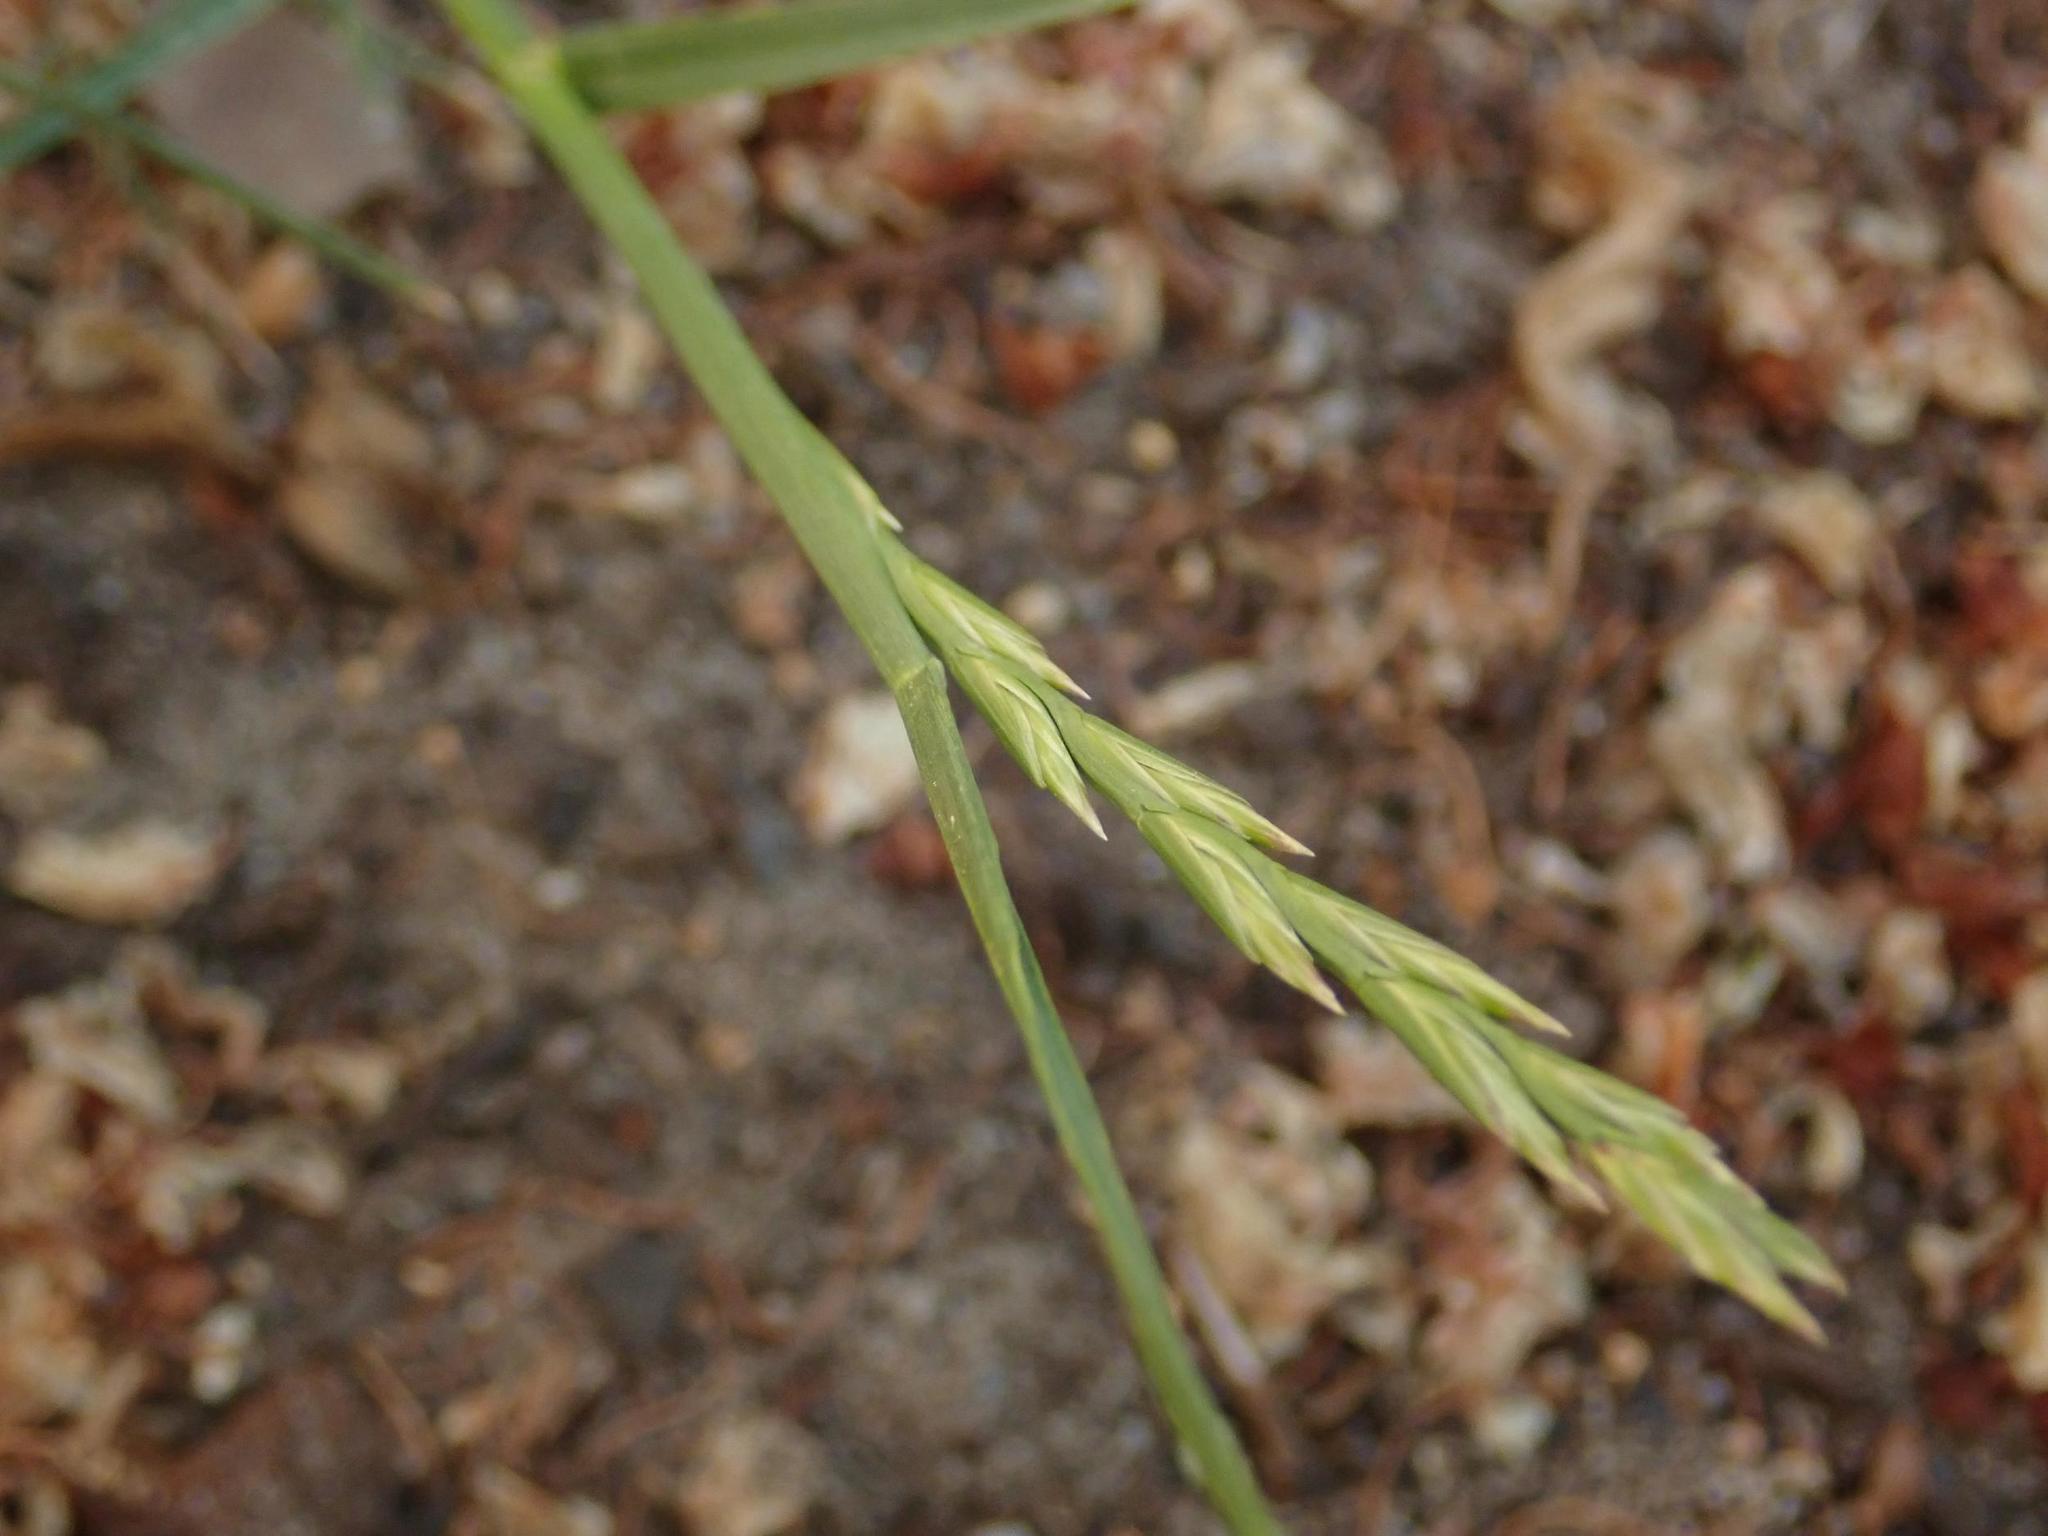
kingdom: Plantae
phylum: Tracheophyta
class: Liliopsida
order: Poales
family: Poaceae
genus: Lolium
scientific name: Lolium perenne
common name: Perennial ryegrass
